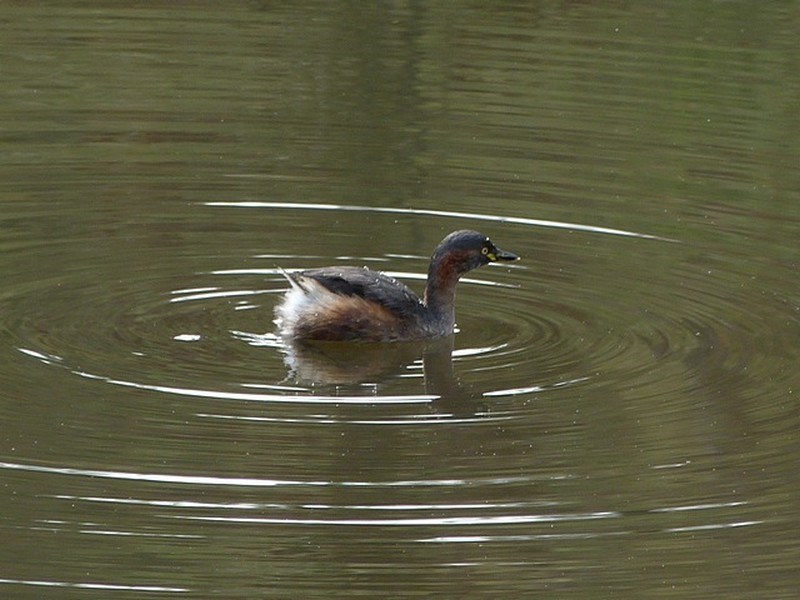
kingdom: Animalia
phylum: Chordata
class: Aves
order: Podicipediformes
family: Podicipedidae
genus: Tachybaptus
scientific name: Tachybaptus novaehollandiae
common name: Australasian grebe
